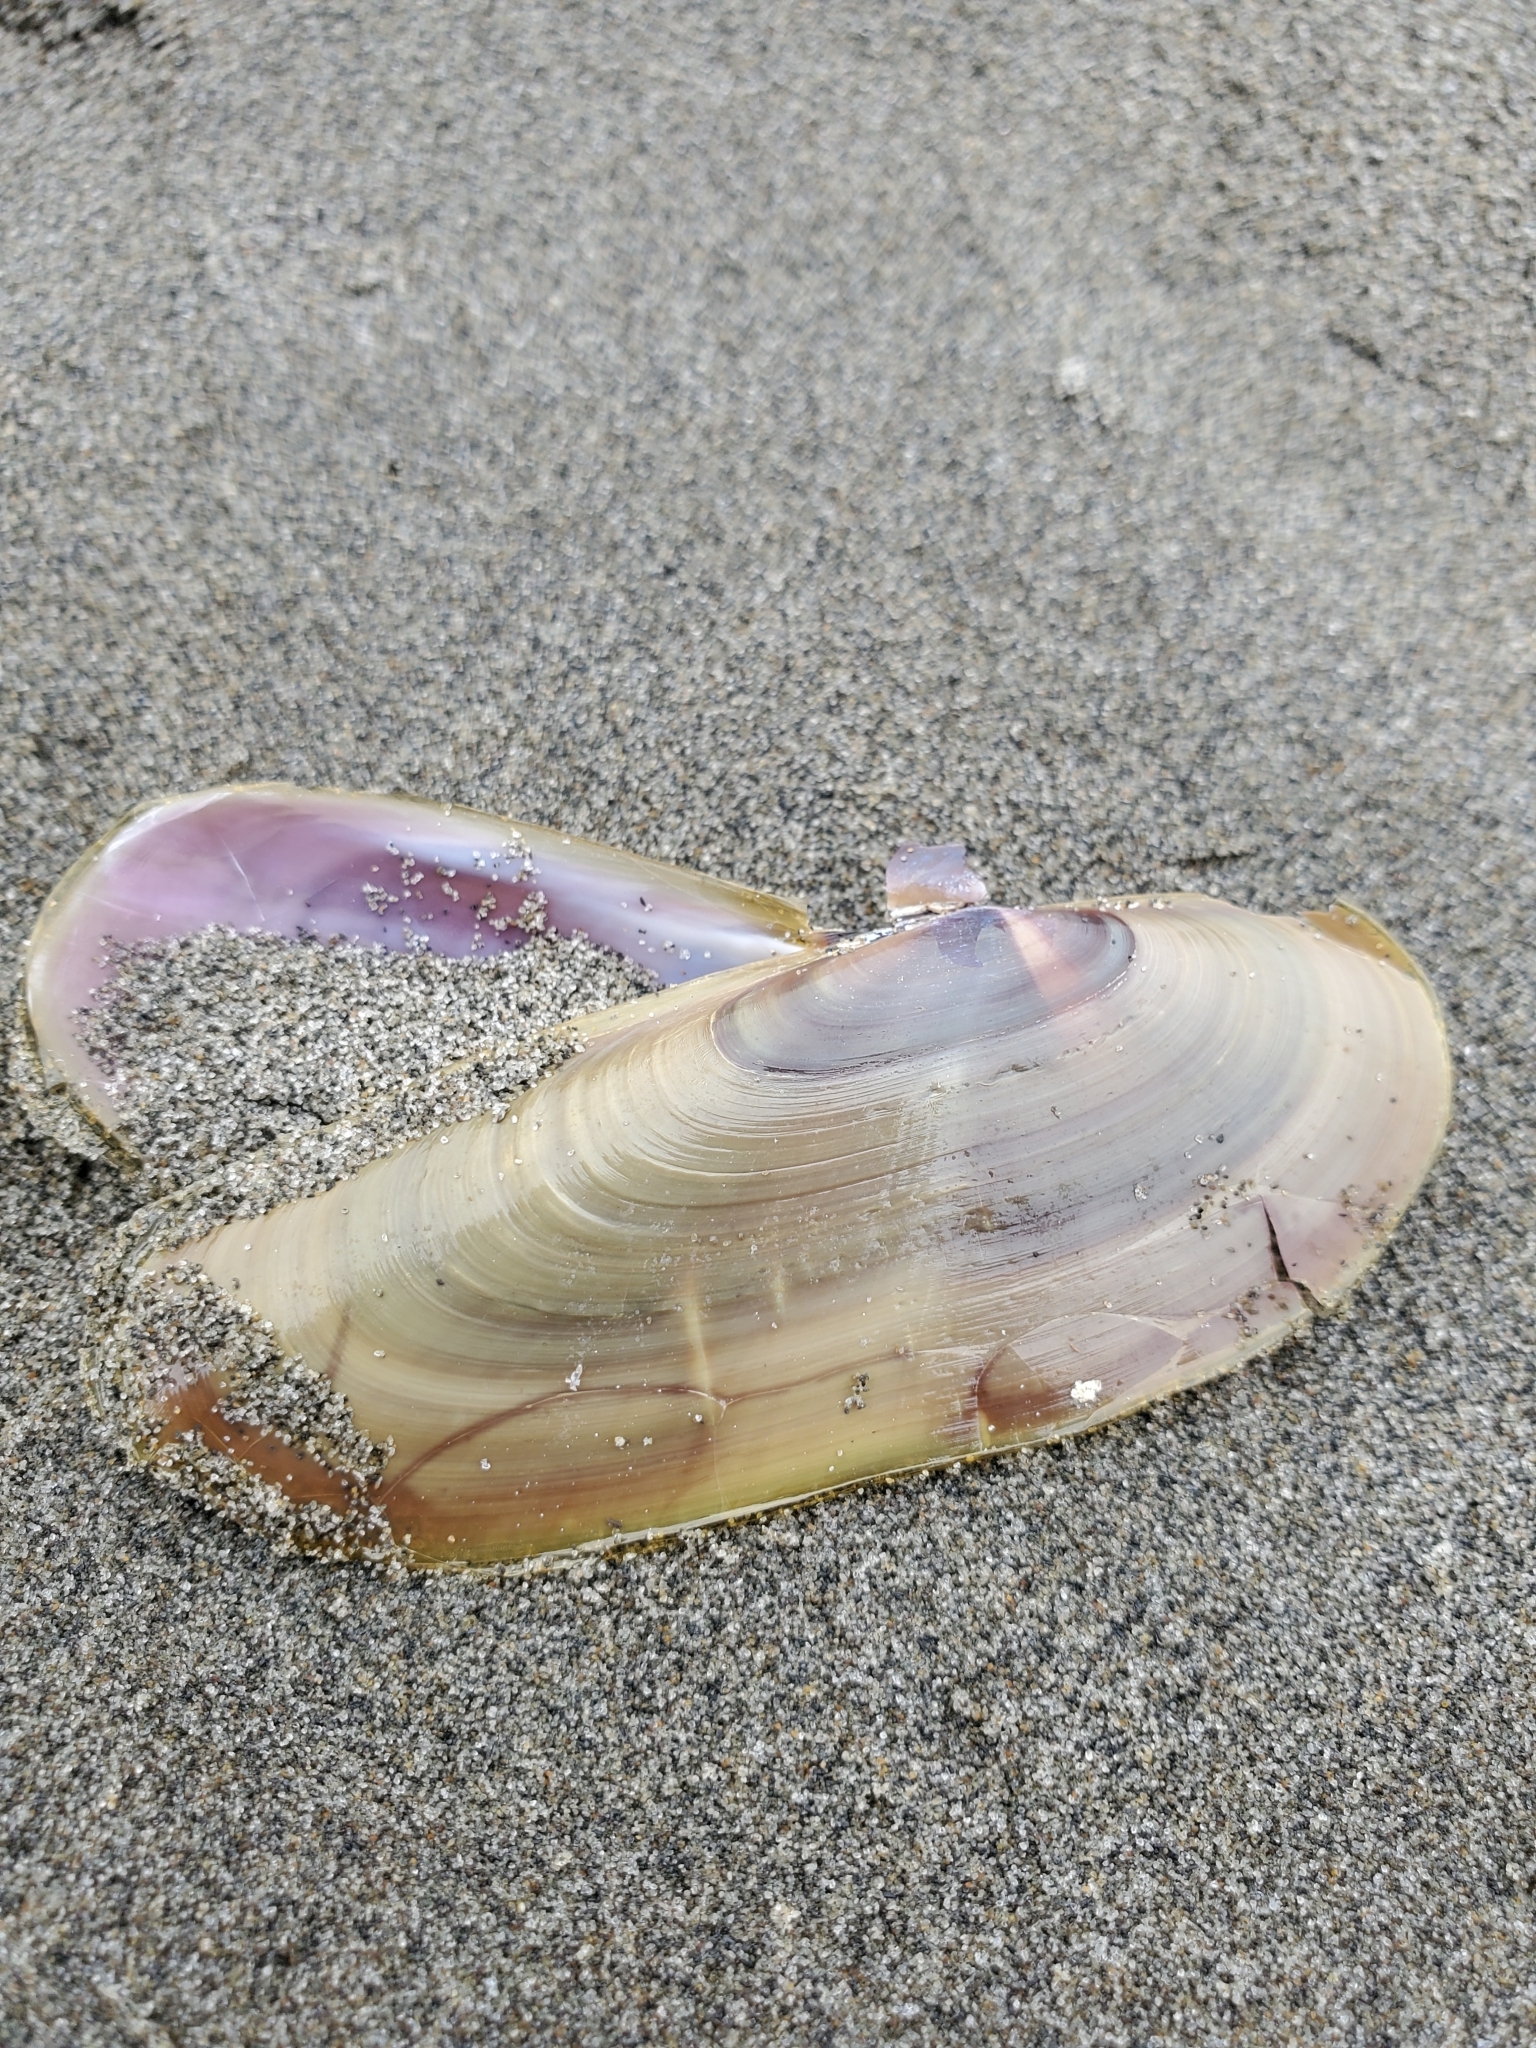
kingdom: Animalia
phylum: Mollusca
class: Bivalvia
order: Adapedonta
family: Pharidae
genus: Siliqua
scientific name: Siliqua patula
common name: Pacific razor clam
